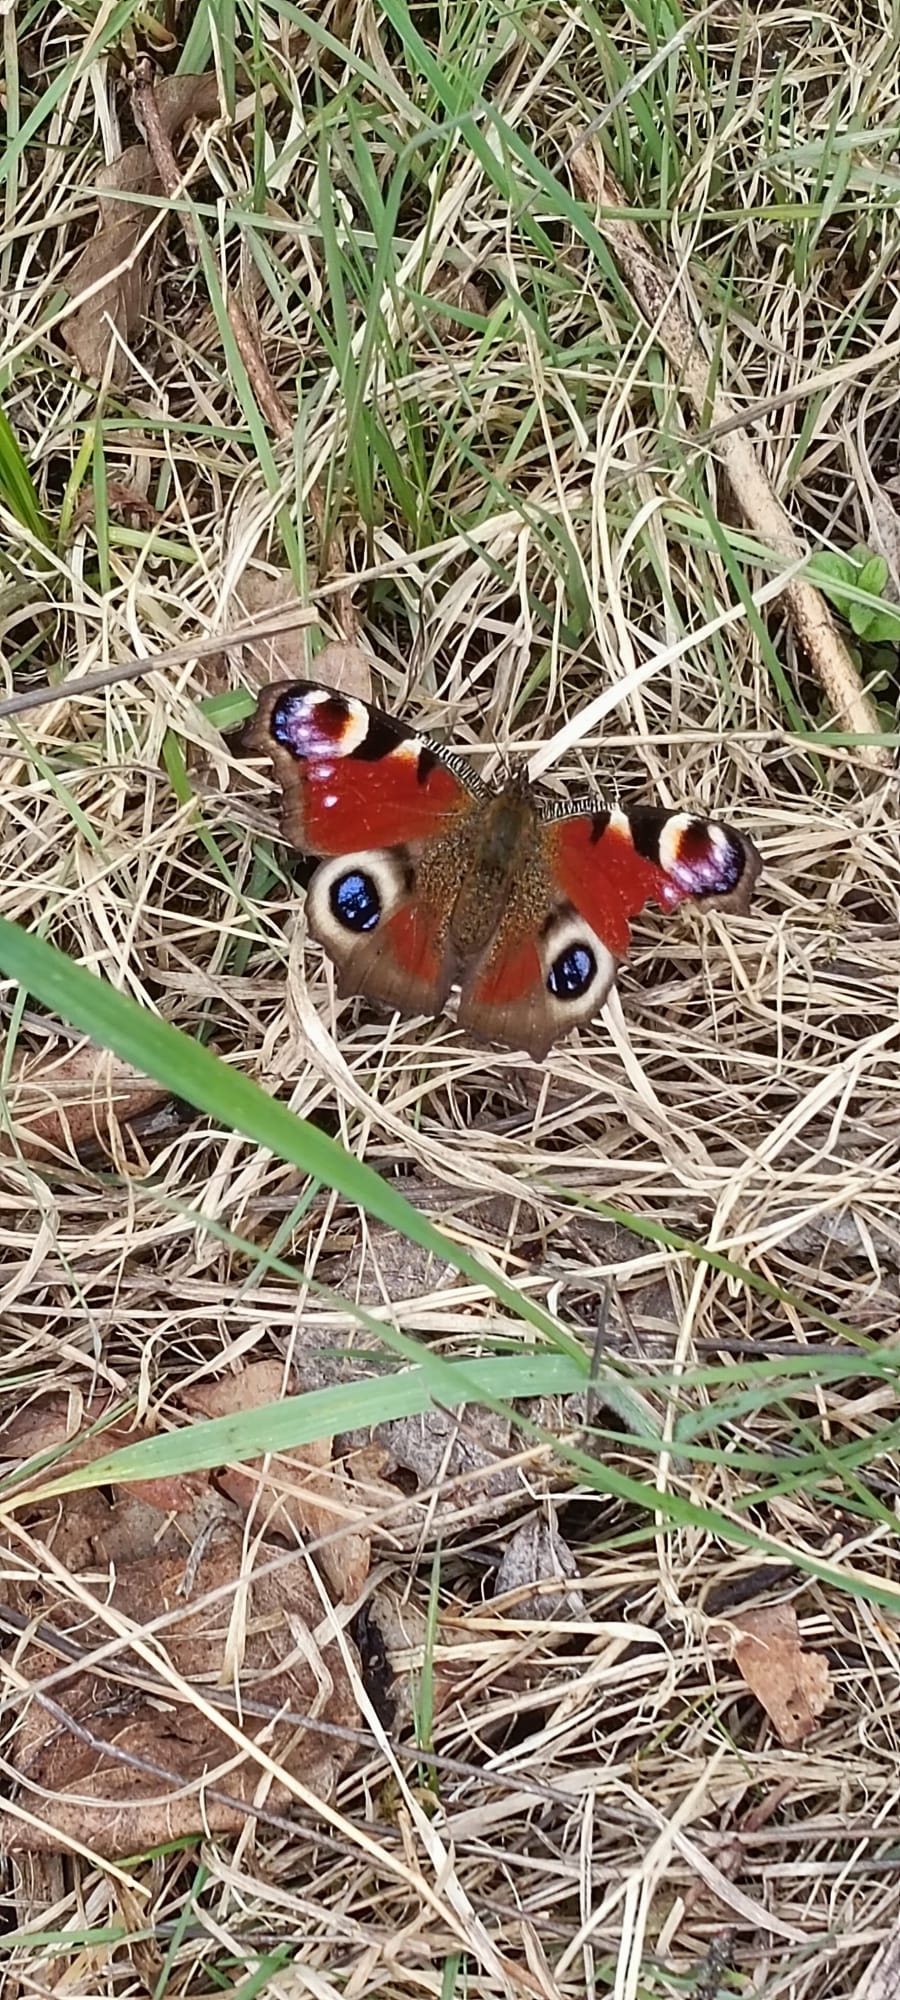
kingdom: Animalia
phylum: Arthropoda
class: Insecta
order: Lepidoptera
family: Nymphalidae
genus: Aglais
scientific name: Aglais io
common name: Peacock
